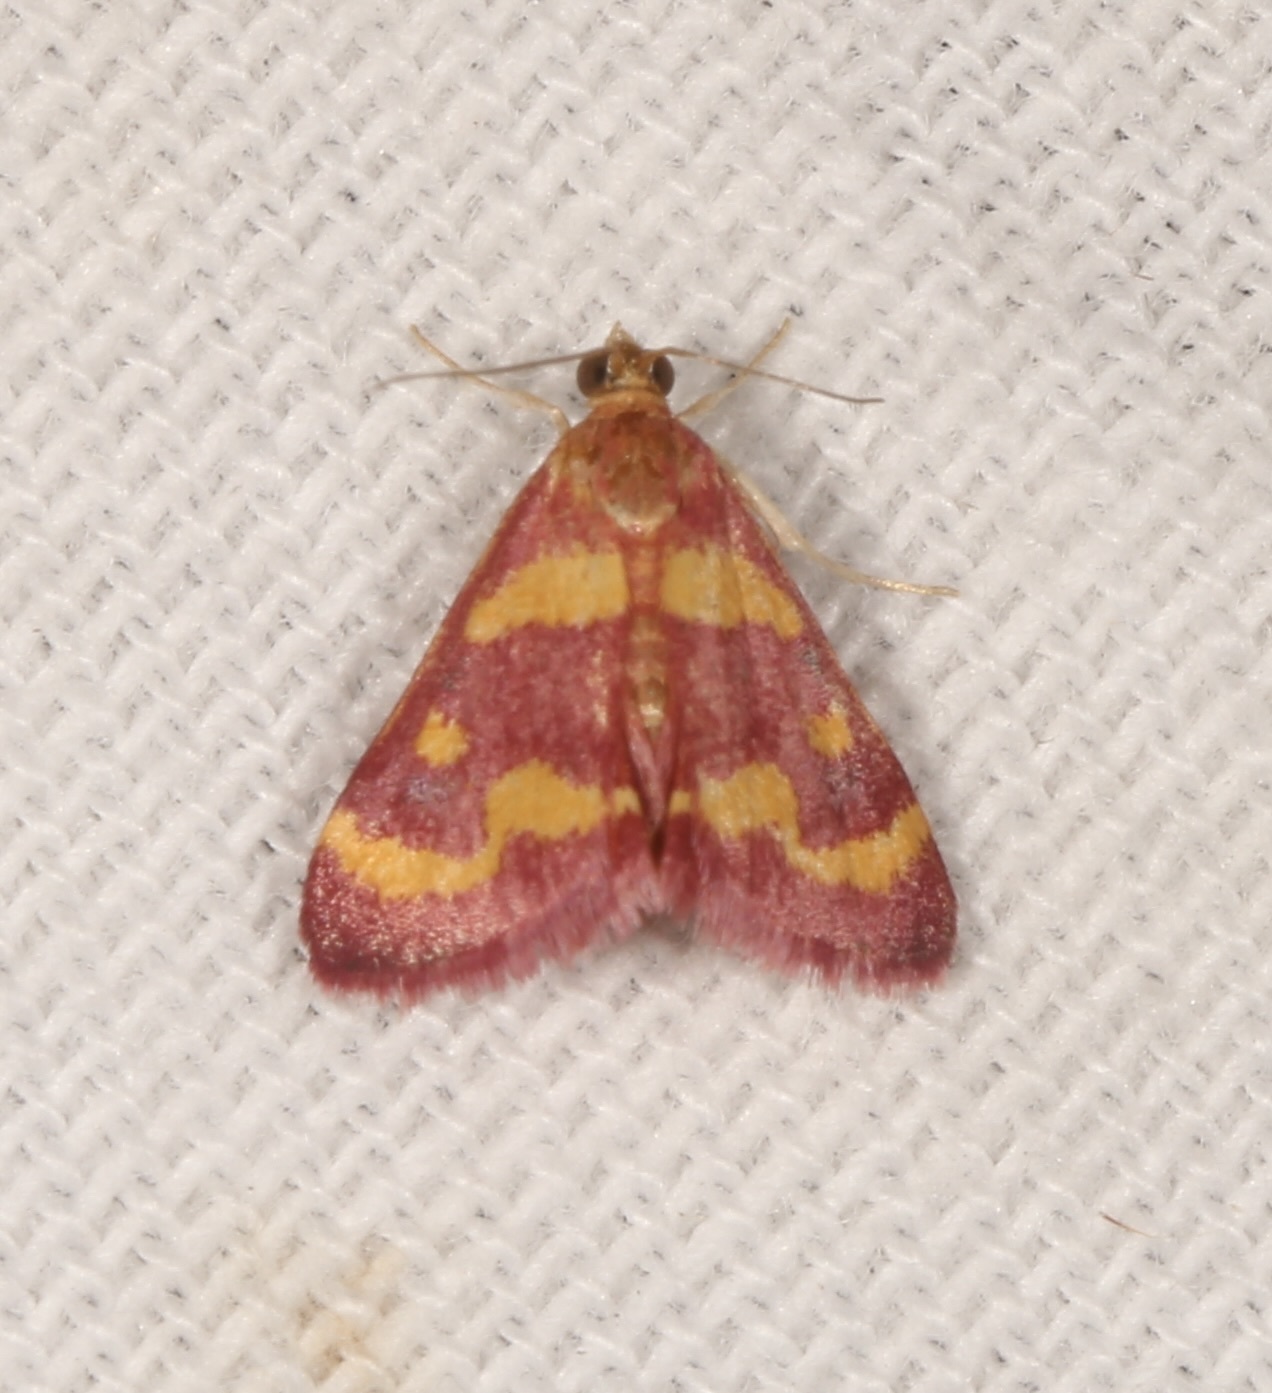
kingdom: Animalia
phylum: Arthropoda
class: Insecta
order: Lepidoptera
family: Crambidae
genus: Pyrausta
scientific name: Pyrausta tyralis
